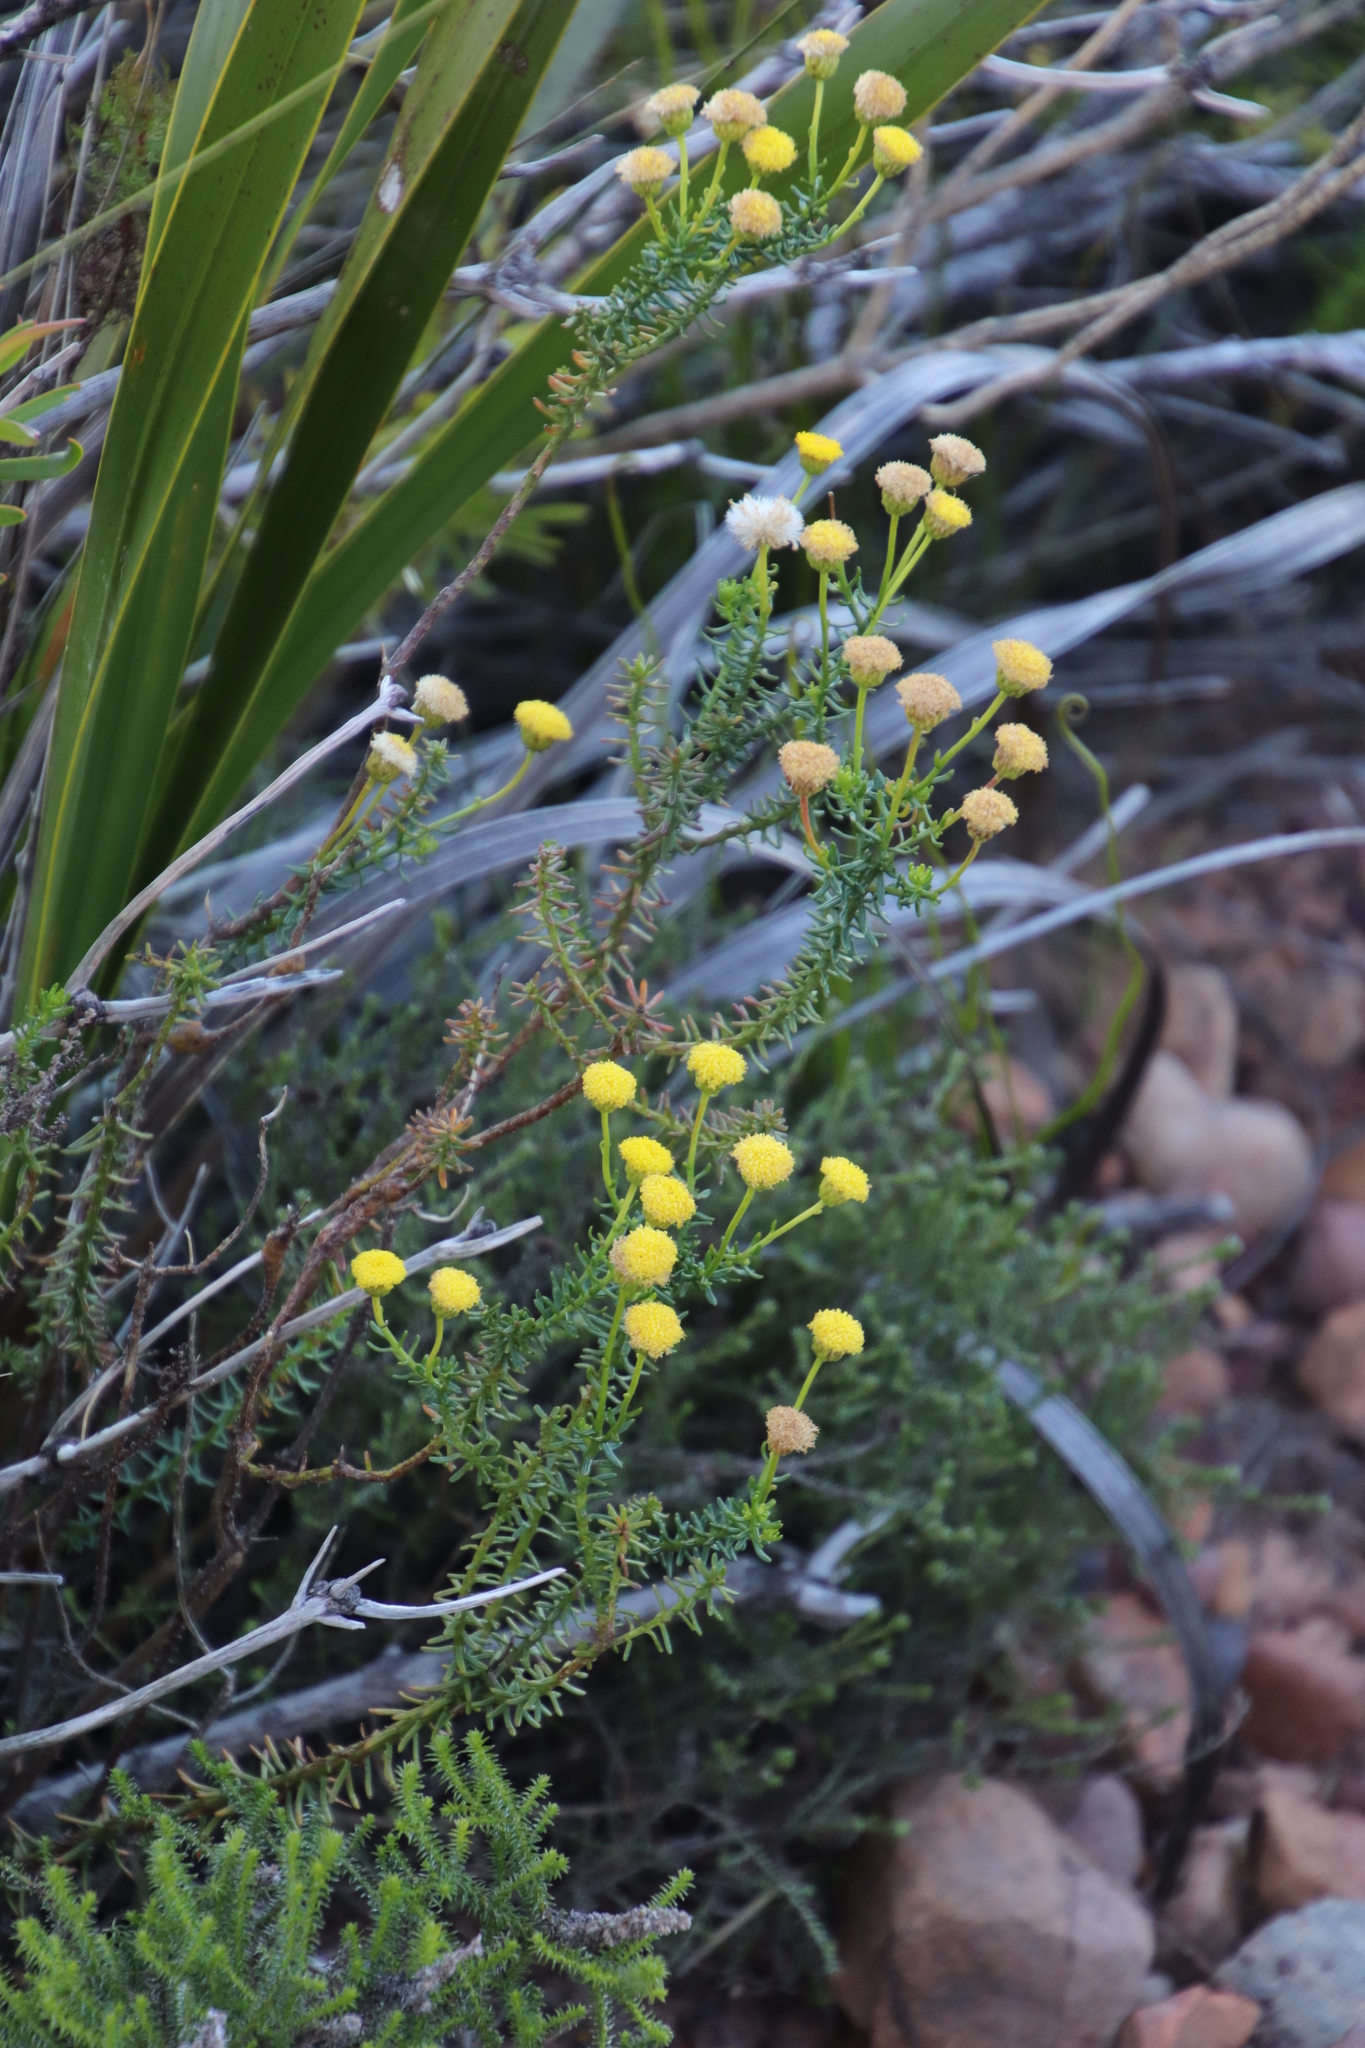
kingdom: Plantae
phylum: Tracheophyta
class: Magnoliopsida
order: Asterales
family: Asteraceae
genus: Chrysocoma
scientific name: Chrysocoma cernua
